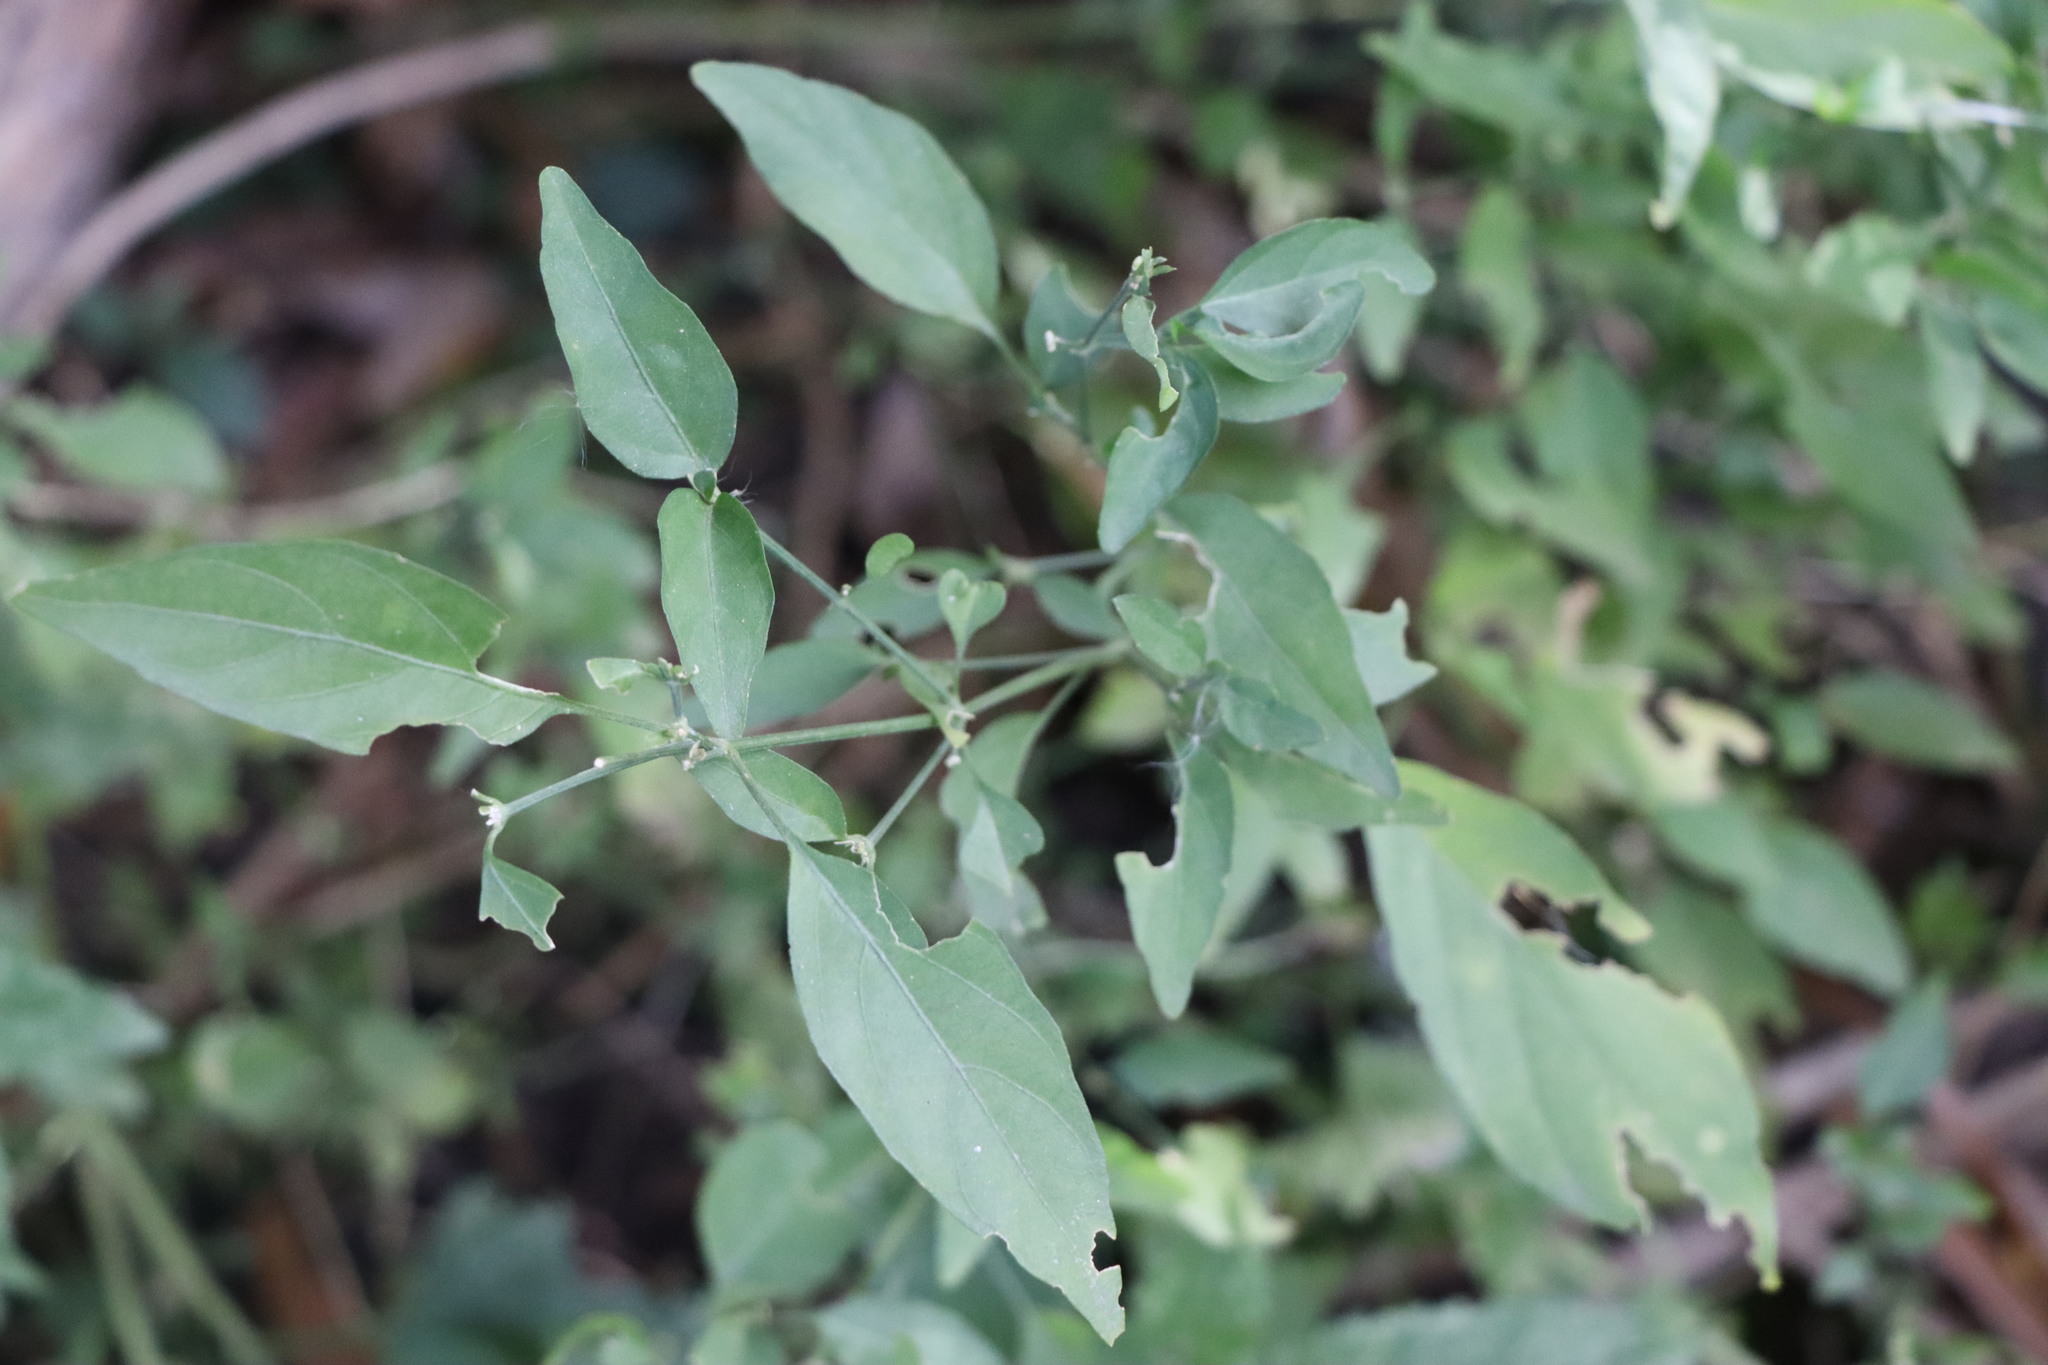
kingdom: Plantae
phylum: Tracheophyta
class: Magnoliopsida
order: Lamiales
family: Acanthaceae
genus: Dicliptera
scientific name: Dicliptera squarrosa
